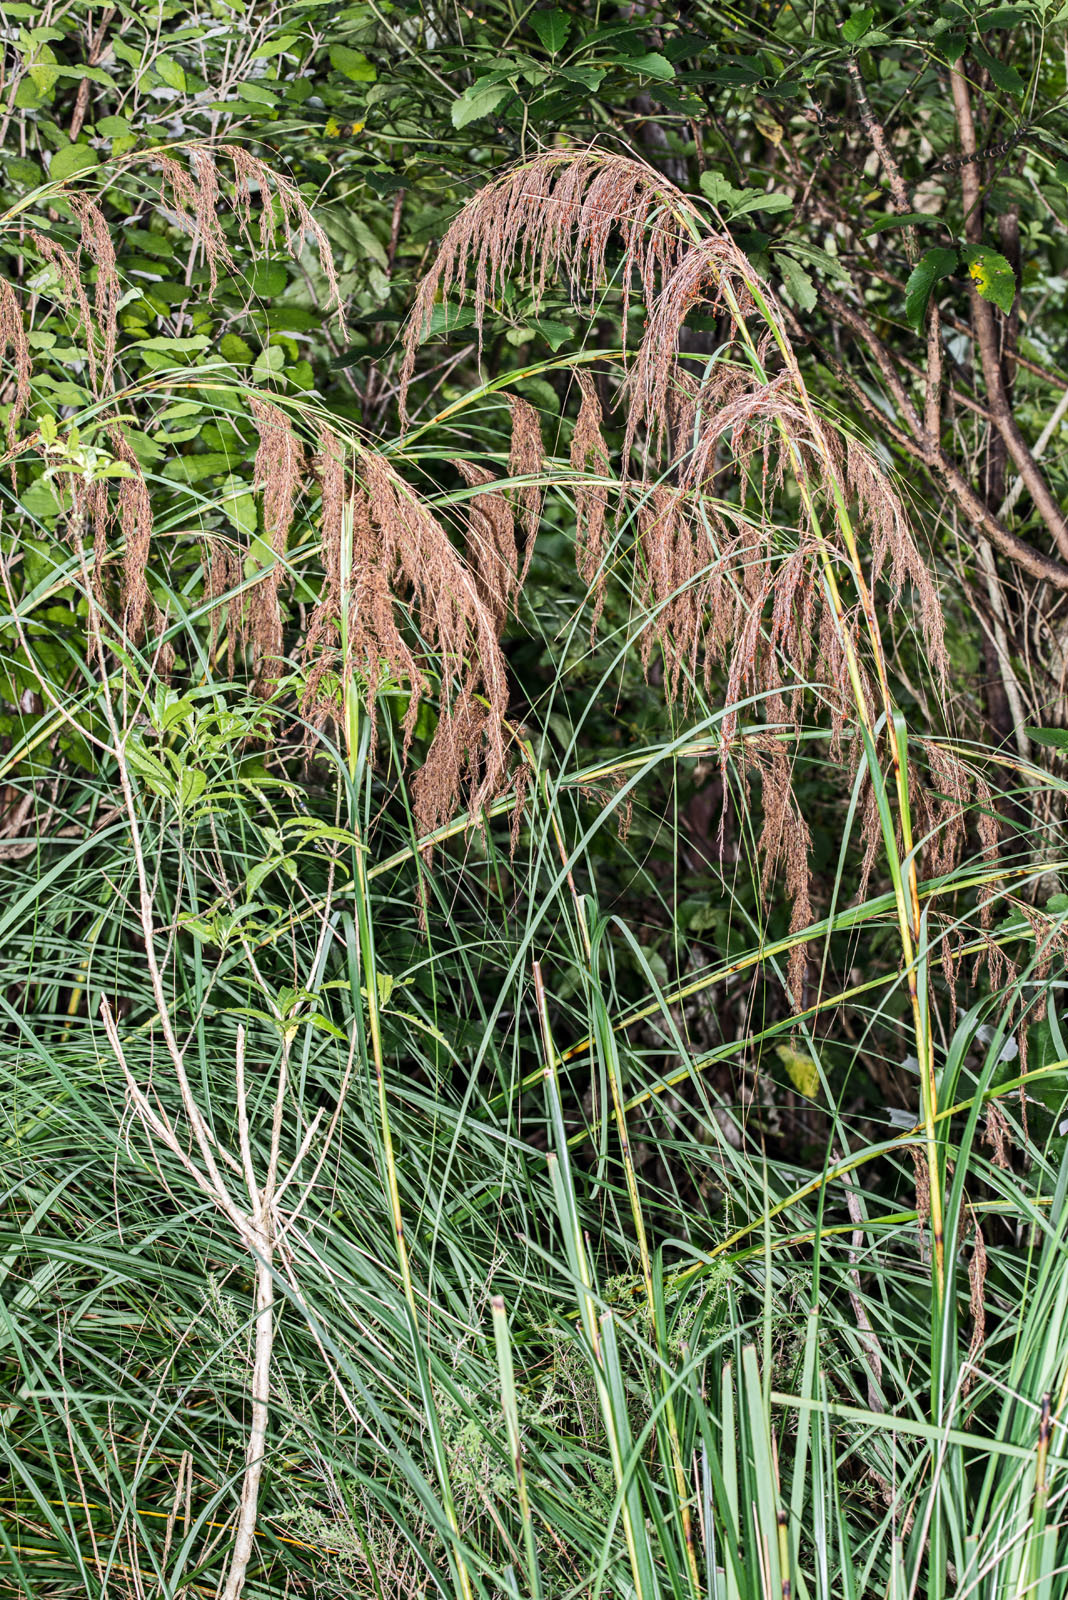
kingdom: Plantae
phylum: Tracheophyta
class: Liliopsida
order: Poales
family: Cyperaceae
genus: Gahnia
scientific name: Gahnia setifolia
